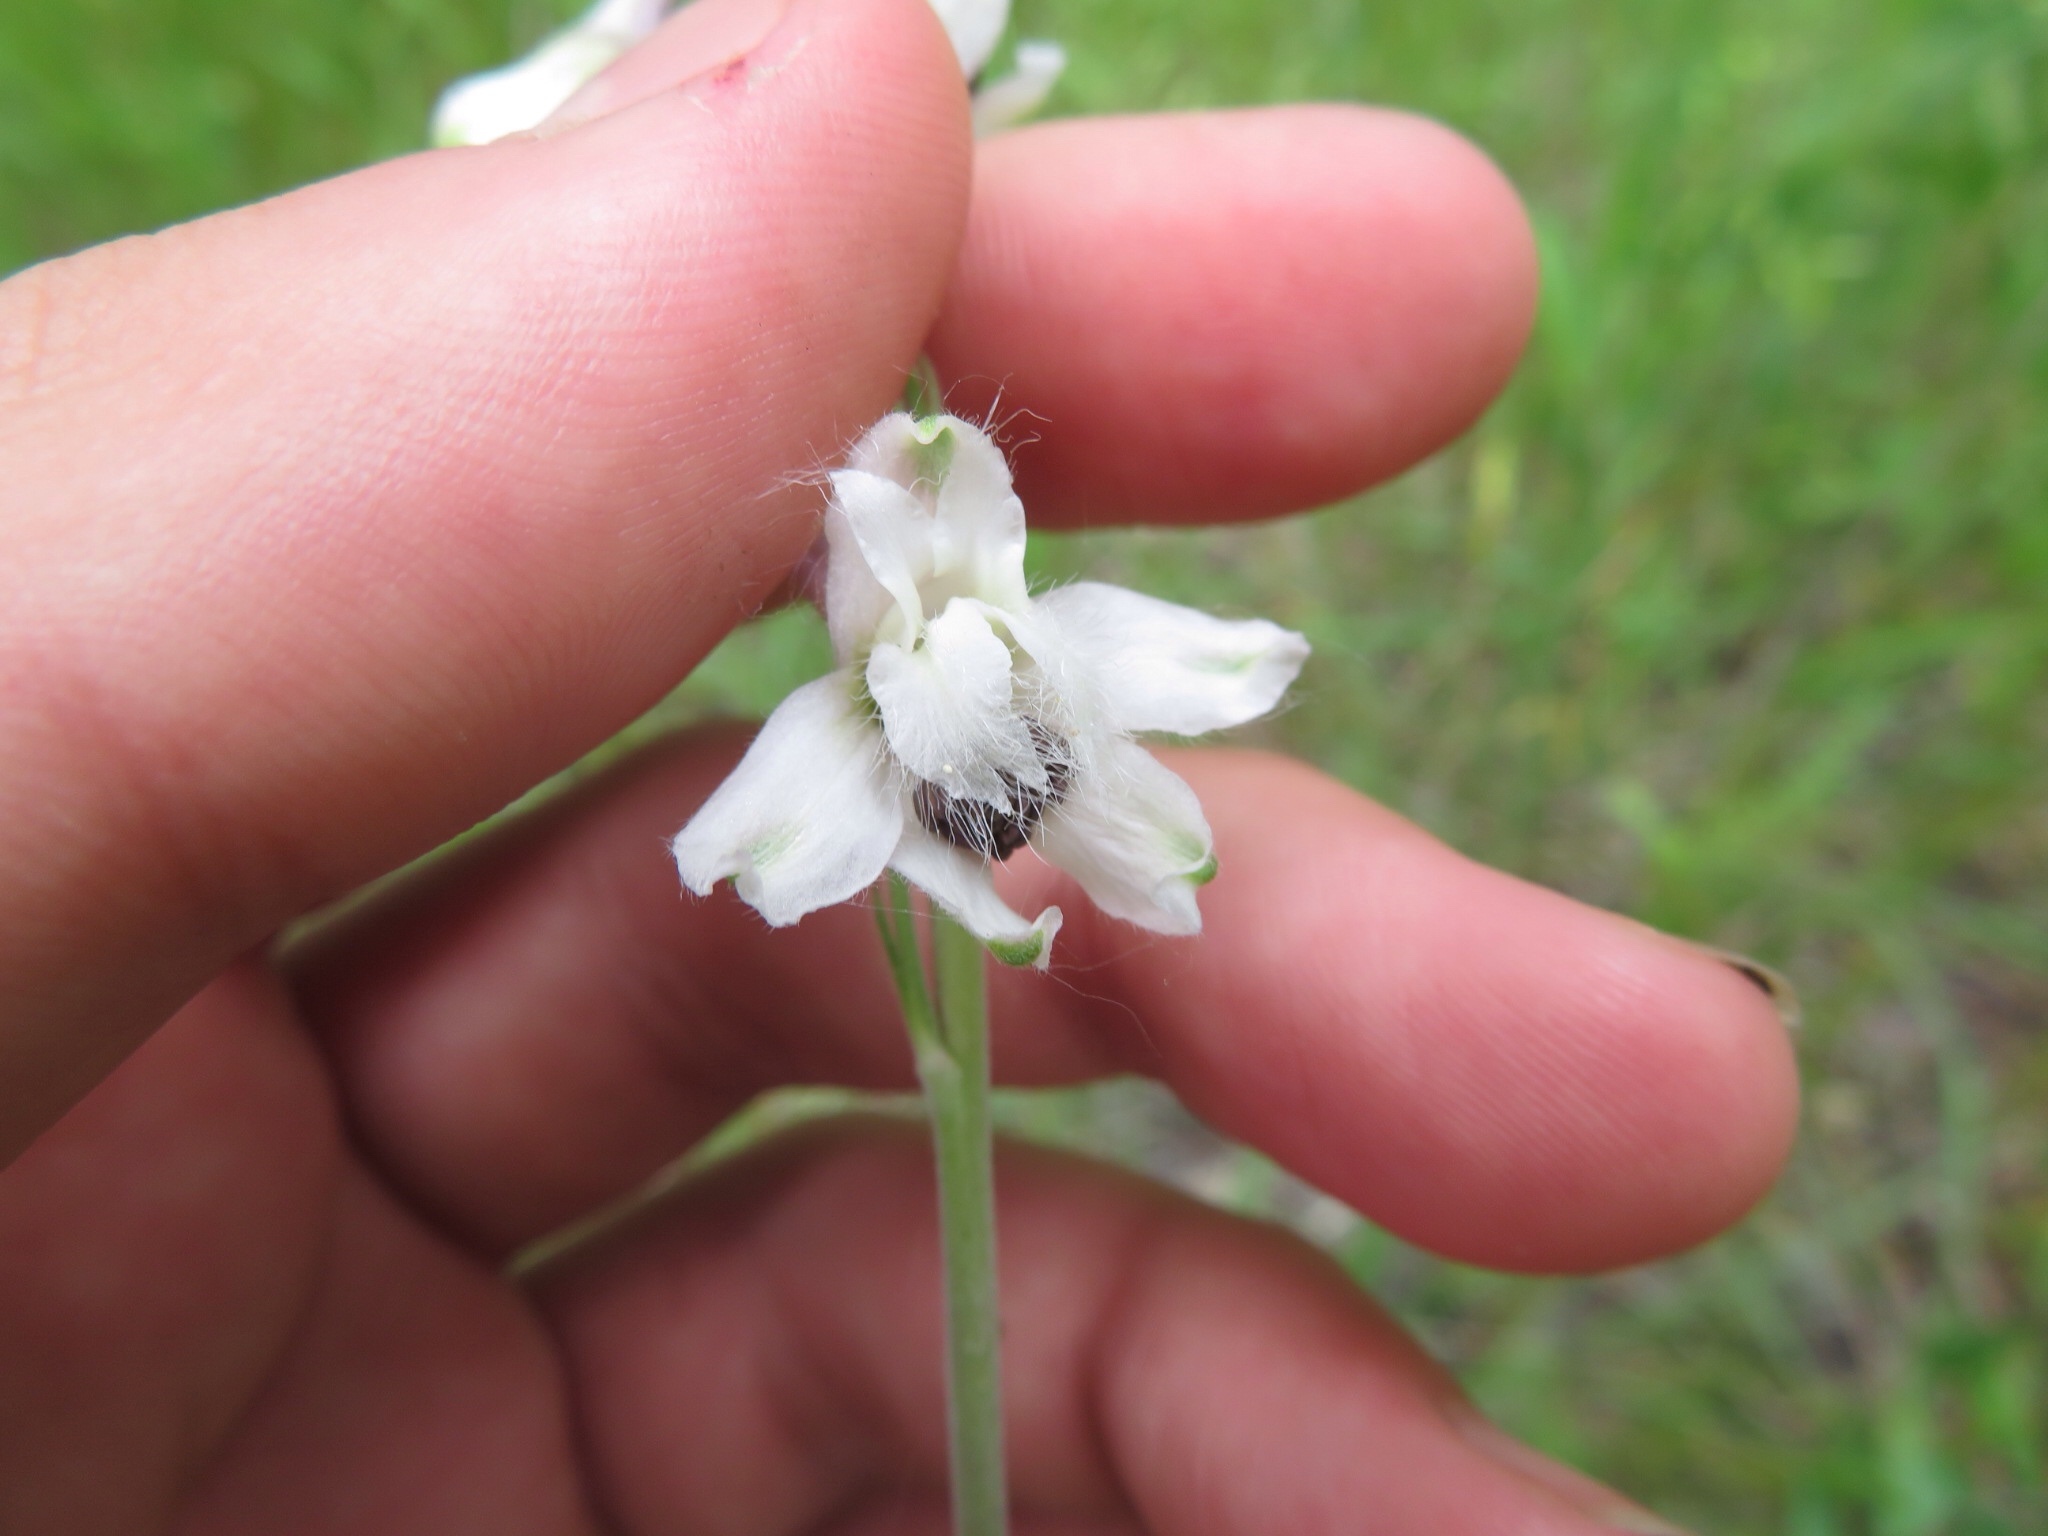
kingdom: Plantae
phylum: Tracheophyta
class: Magnoliopsida
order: Ranunculales
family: Ranunculaceae
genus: Delphinium
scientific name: Delphinium carolinianum
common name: Carolina larkspur
